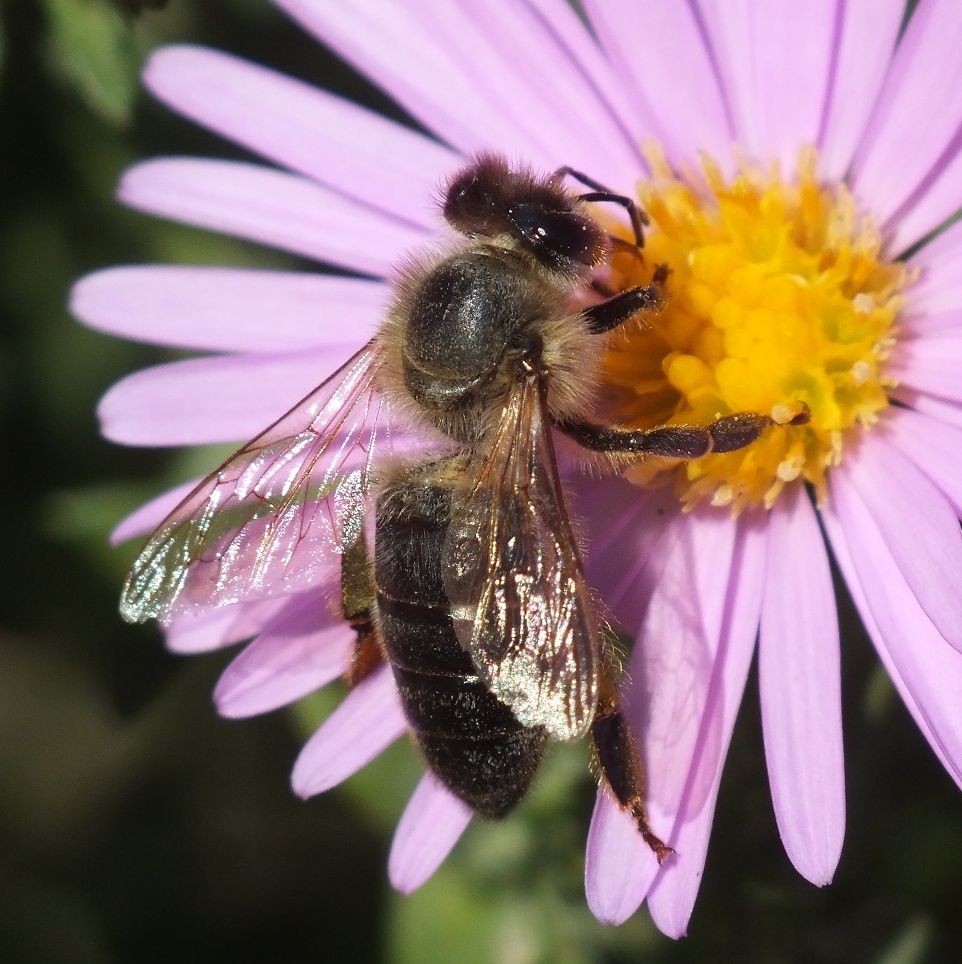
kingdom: Animalia
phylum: Arthropoda
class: Insecta
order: Hymenoptera
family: Apidae
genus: Apis
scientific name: Apis mellifera
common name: Honey bee
